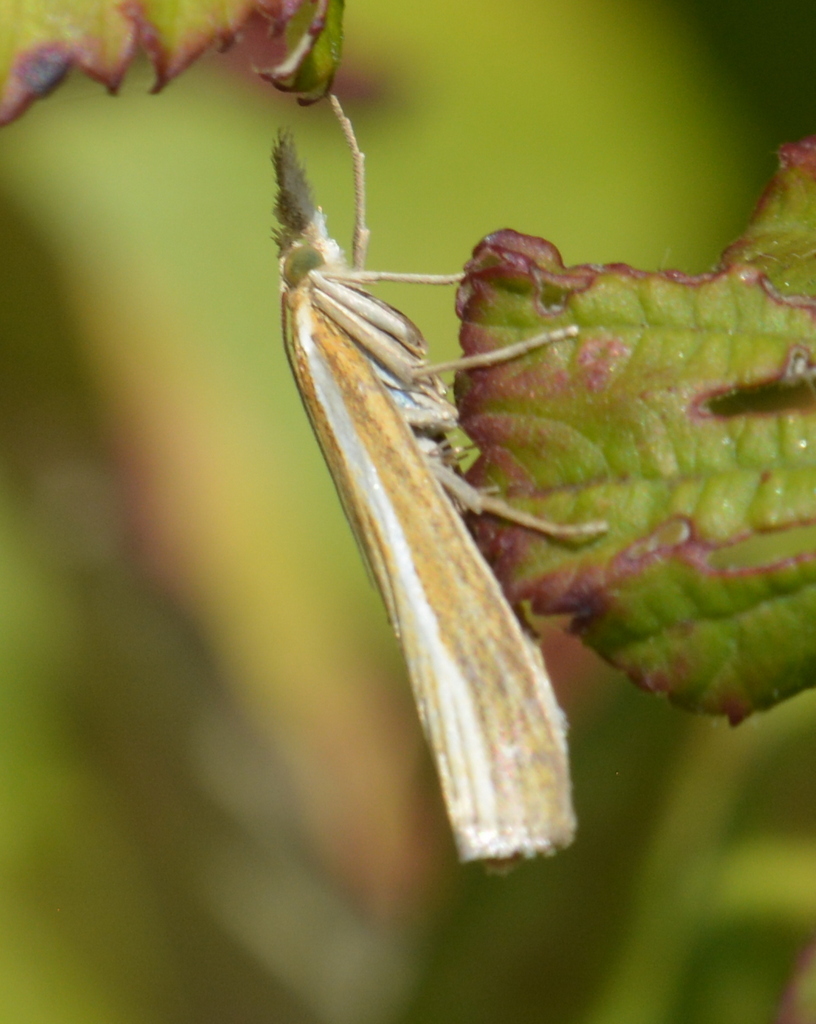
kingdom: Animalia
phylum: Arthropoda
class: Insecta
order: Lepidoptera
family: Crambidae
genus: Agriphila
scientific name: Agriphila tristellus
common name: Common grass-veneer
